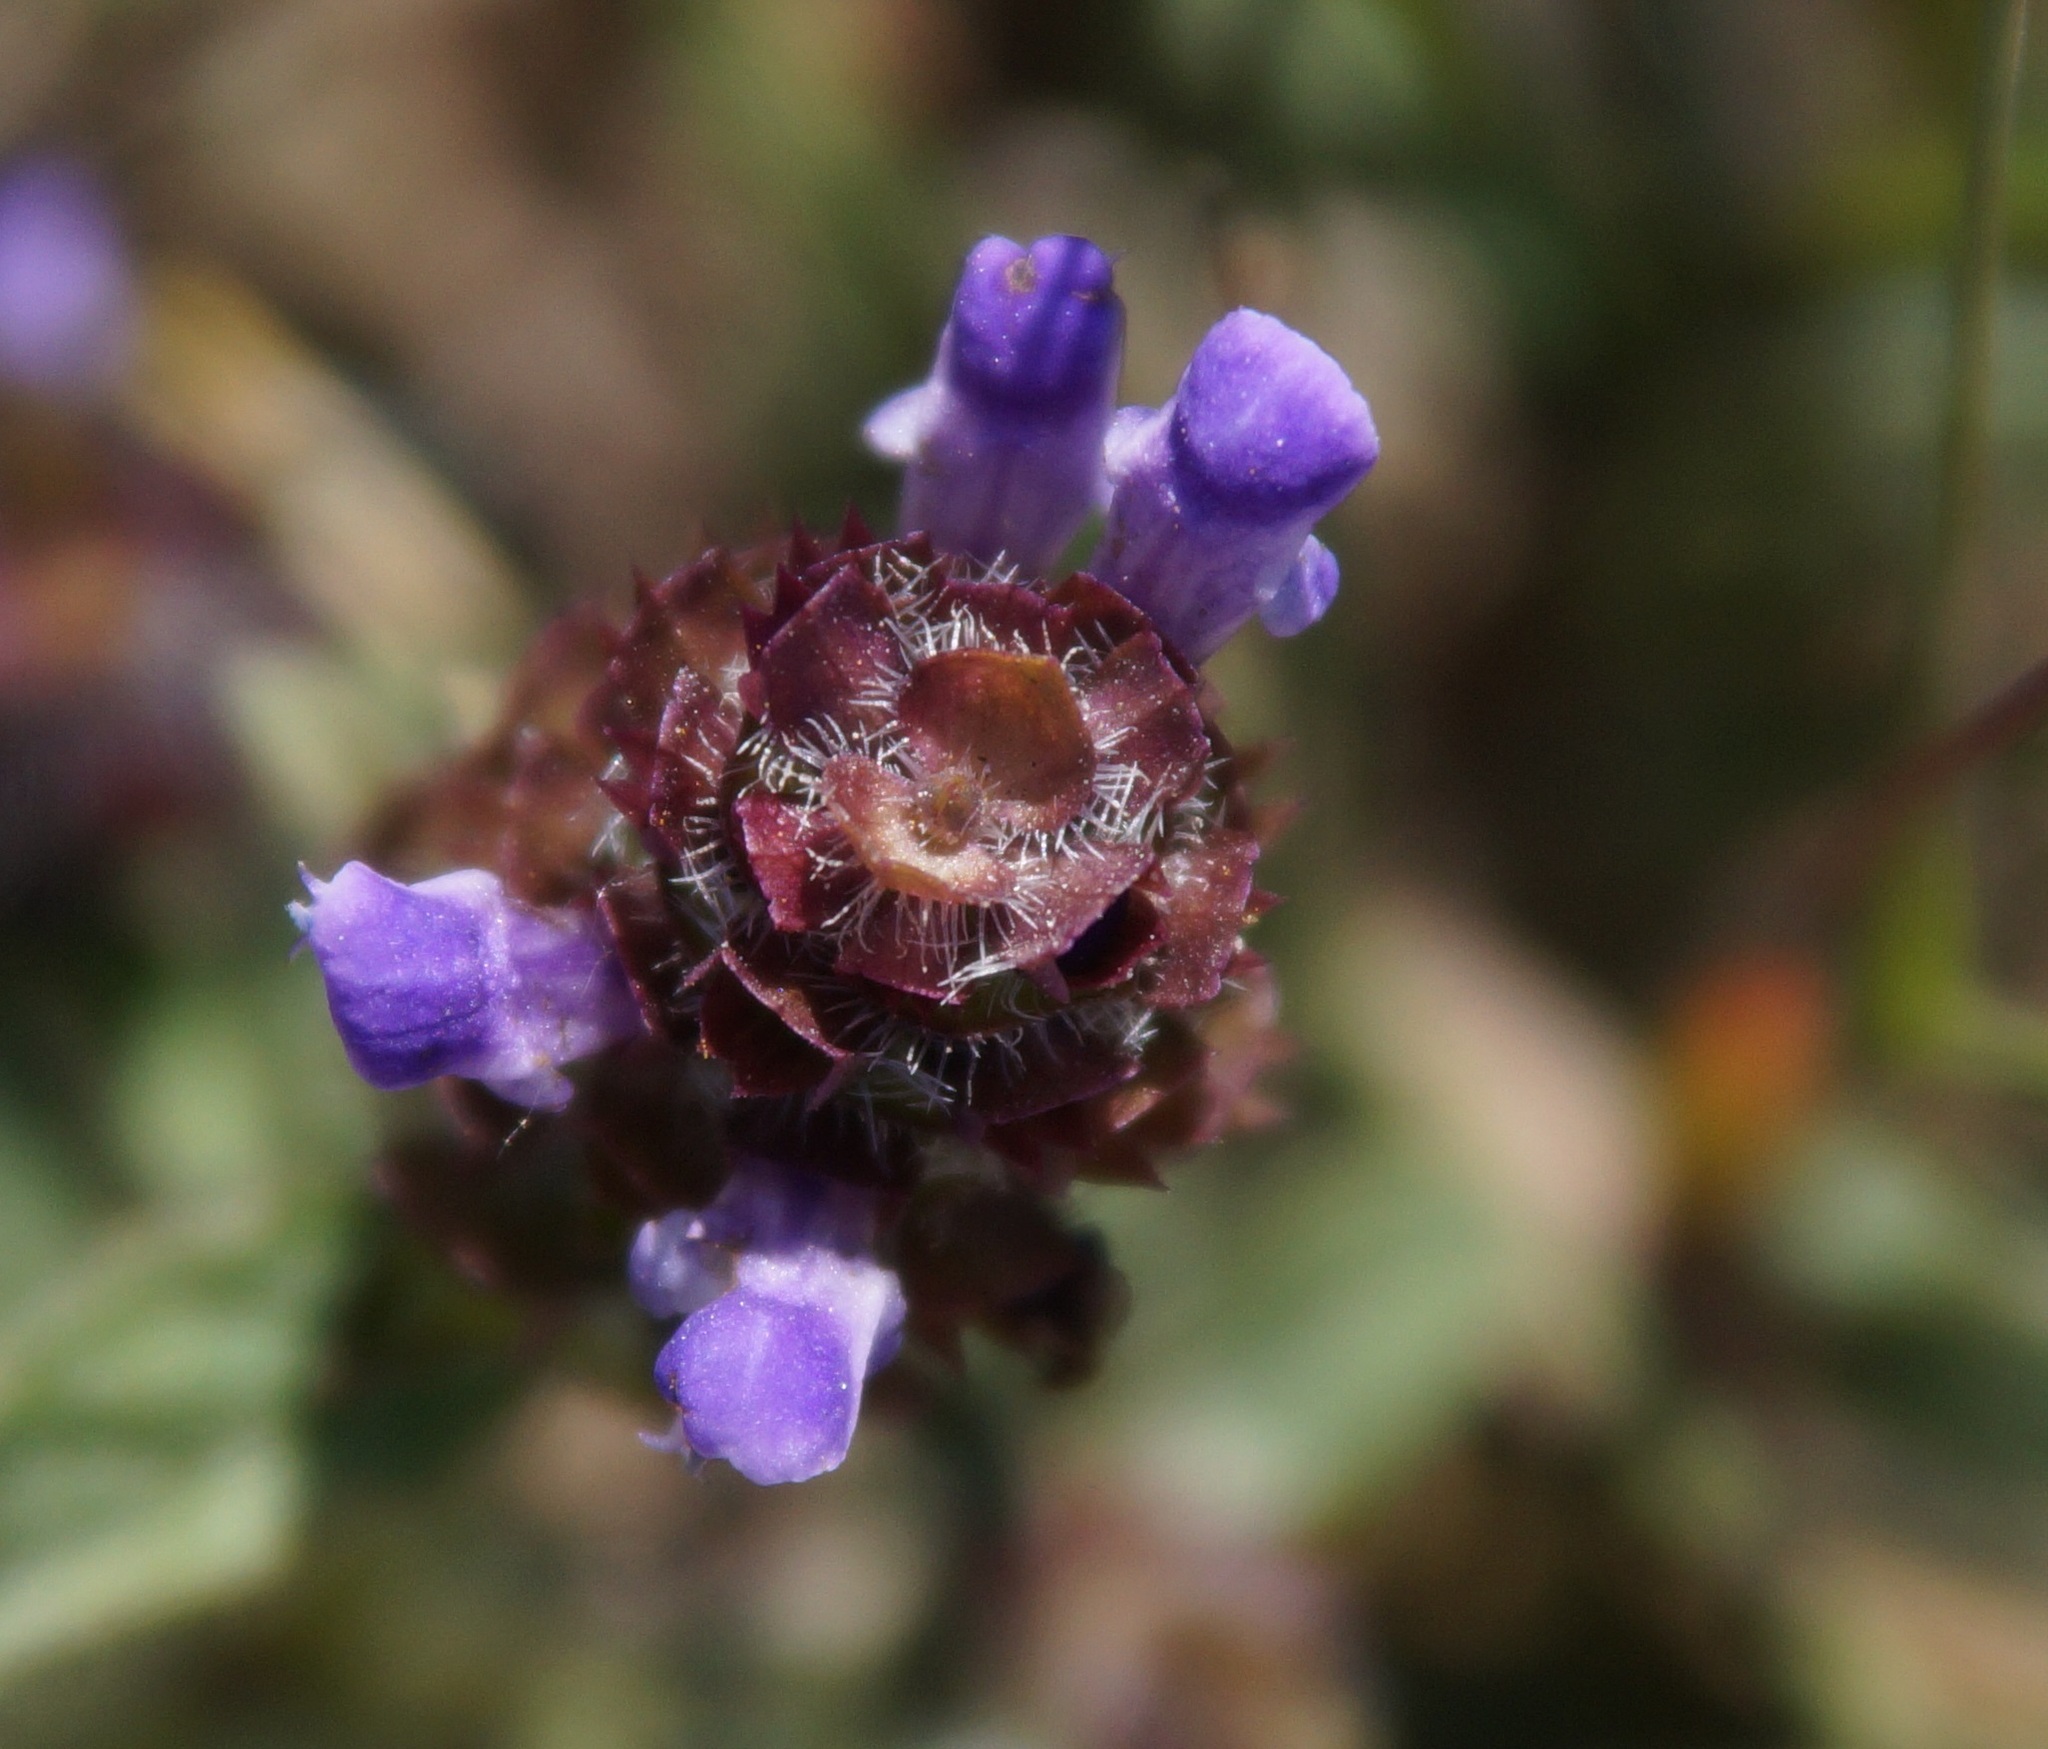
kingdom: Plantae
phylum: Tracheophyta
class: Magnoliopsida
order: Lamiales
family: Lamiaceae
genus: Prunella
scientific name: Prunella vulgaris
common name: Heal-all
